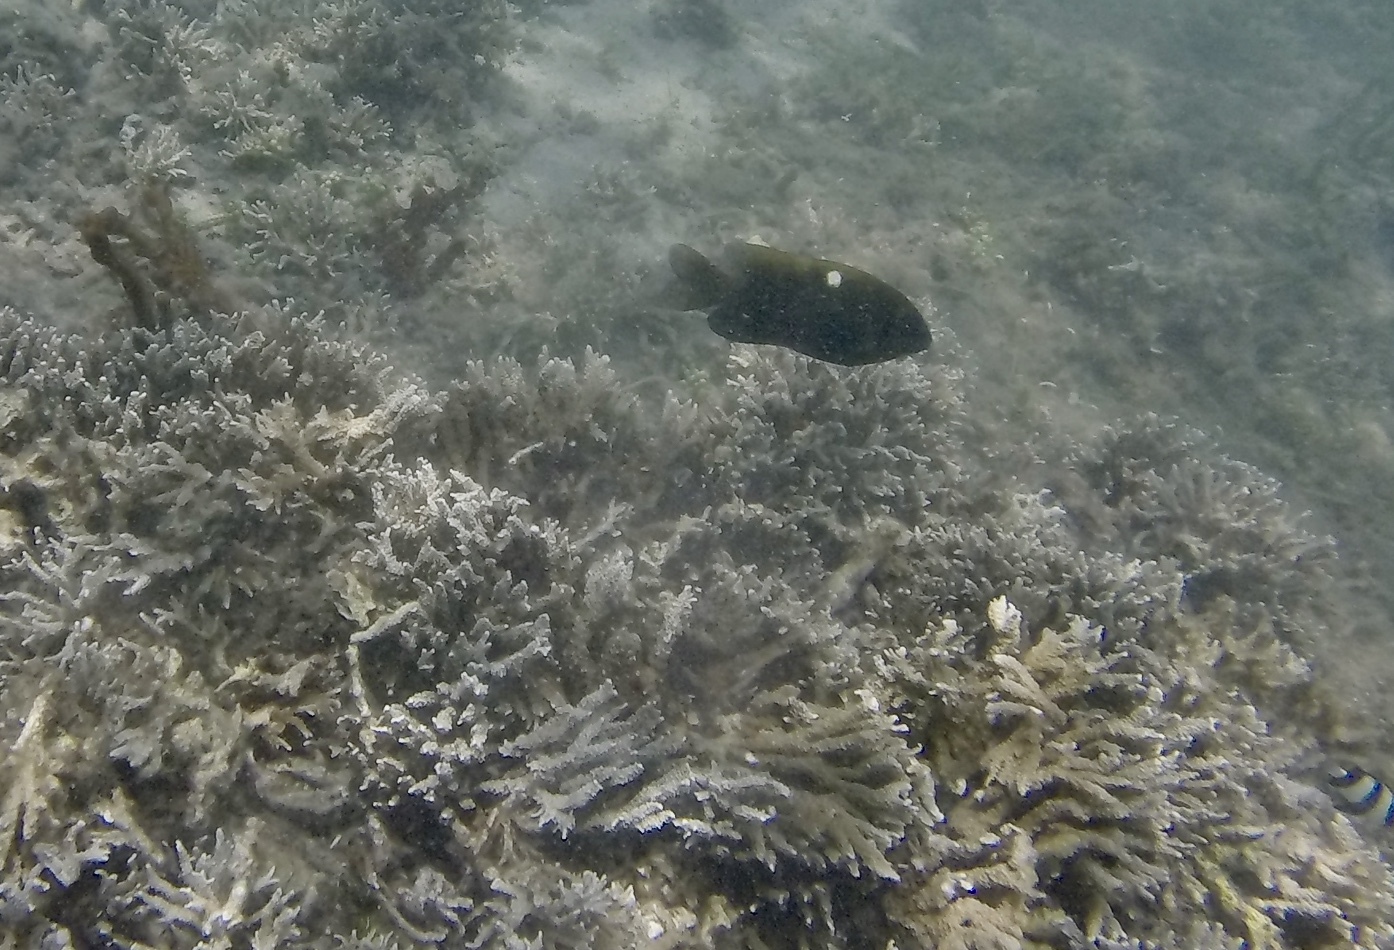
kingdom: Animalia
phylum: Chordata
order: Perciformes
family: Pomacentridae
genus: Dischistodus
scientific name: Dischistodus chrysopoecilus
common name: White-spot damsel
